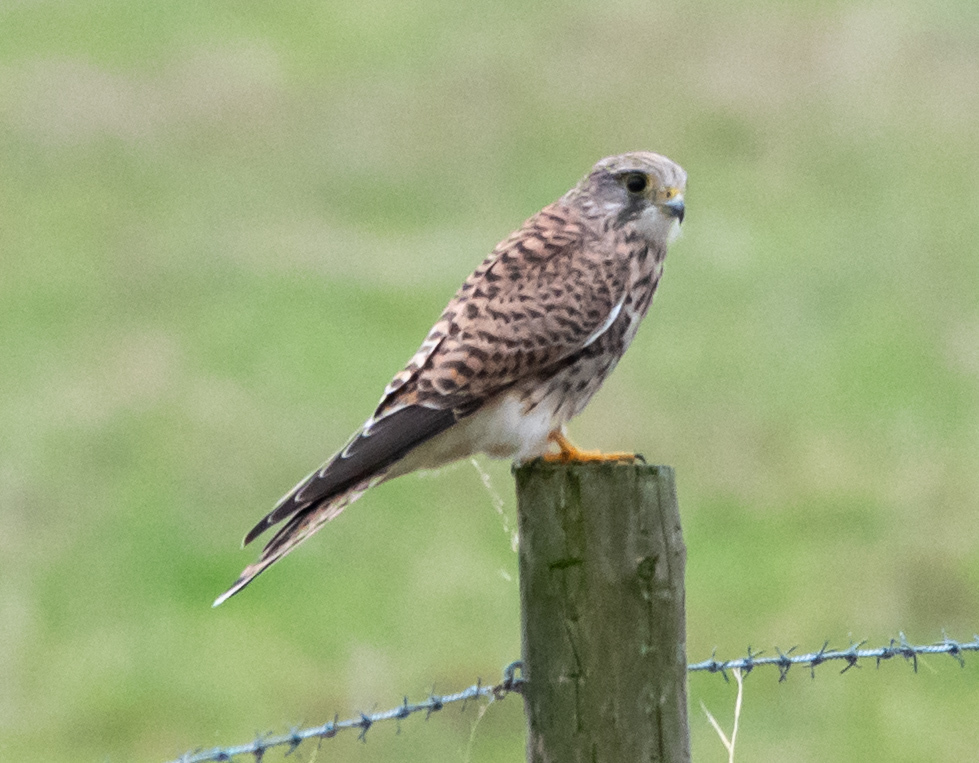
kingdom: Animalia
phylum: Chordata
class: Aves
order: Falconiformes
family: Falconidae
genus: Falco
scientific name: Falco tinnunculus
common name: Common kestrel
